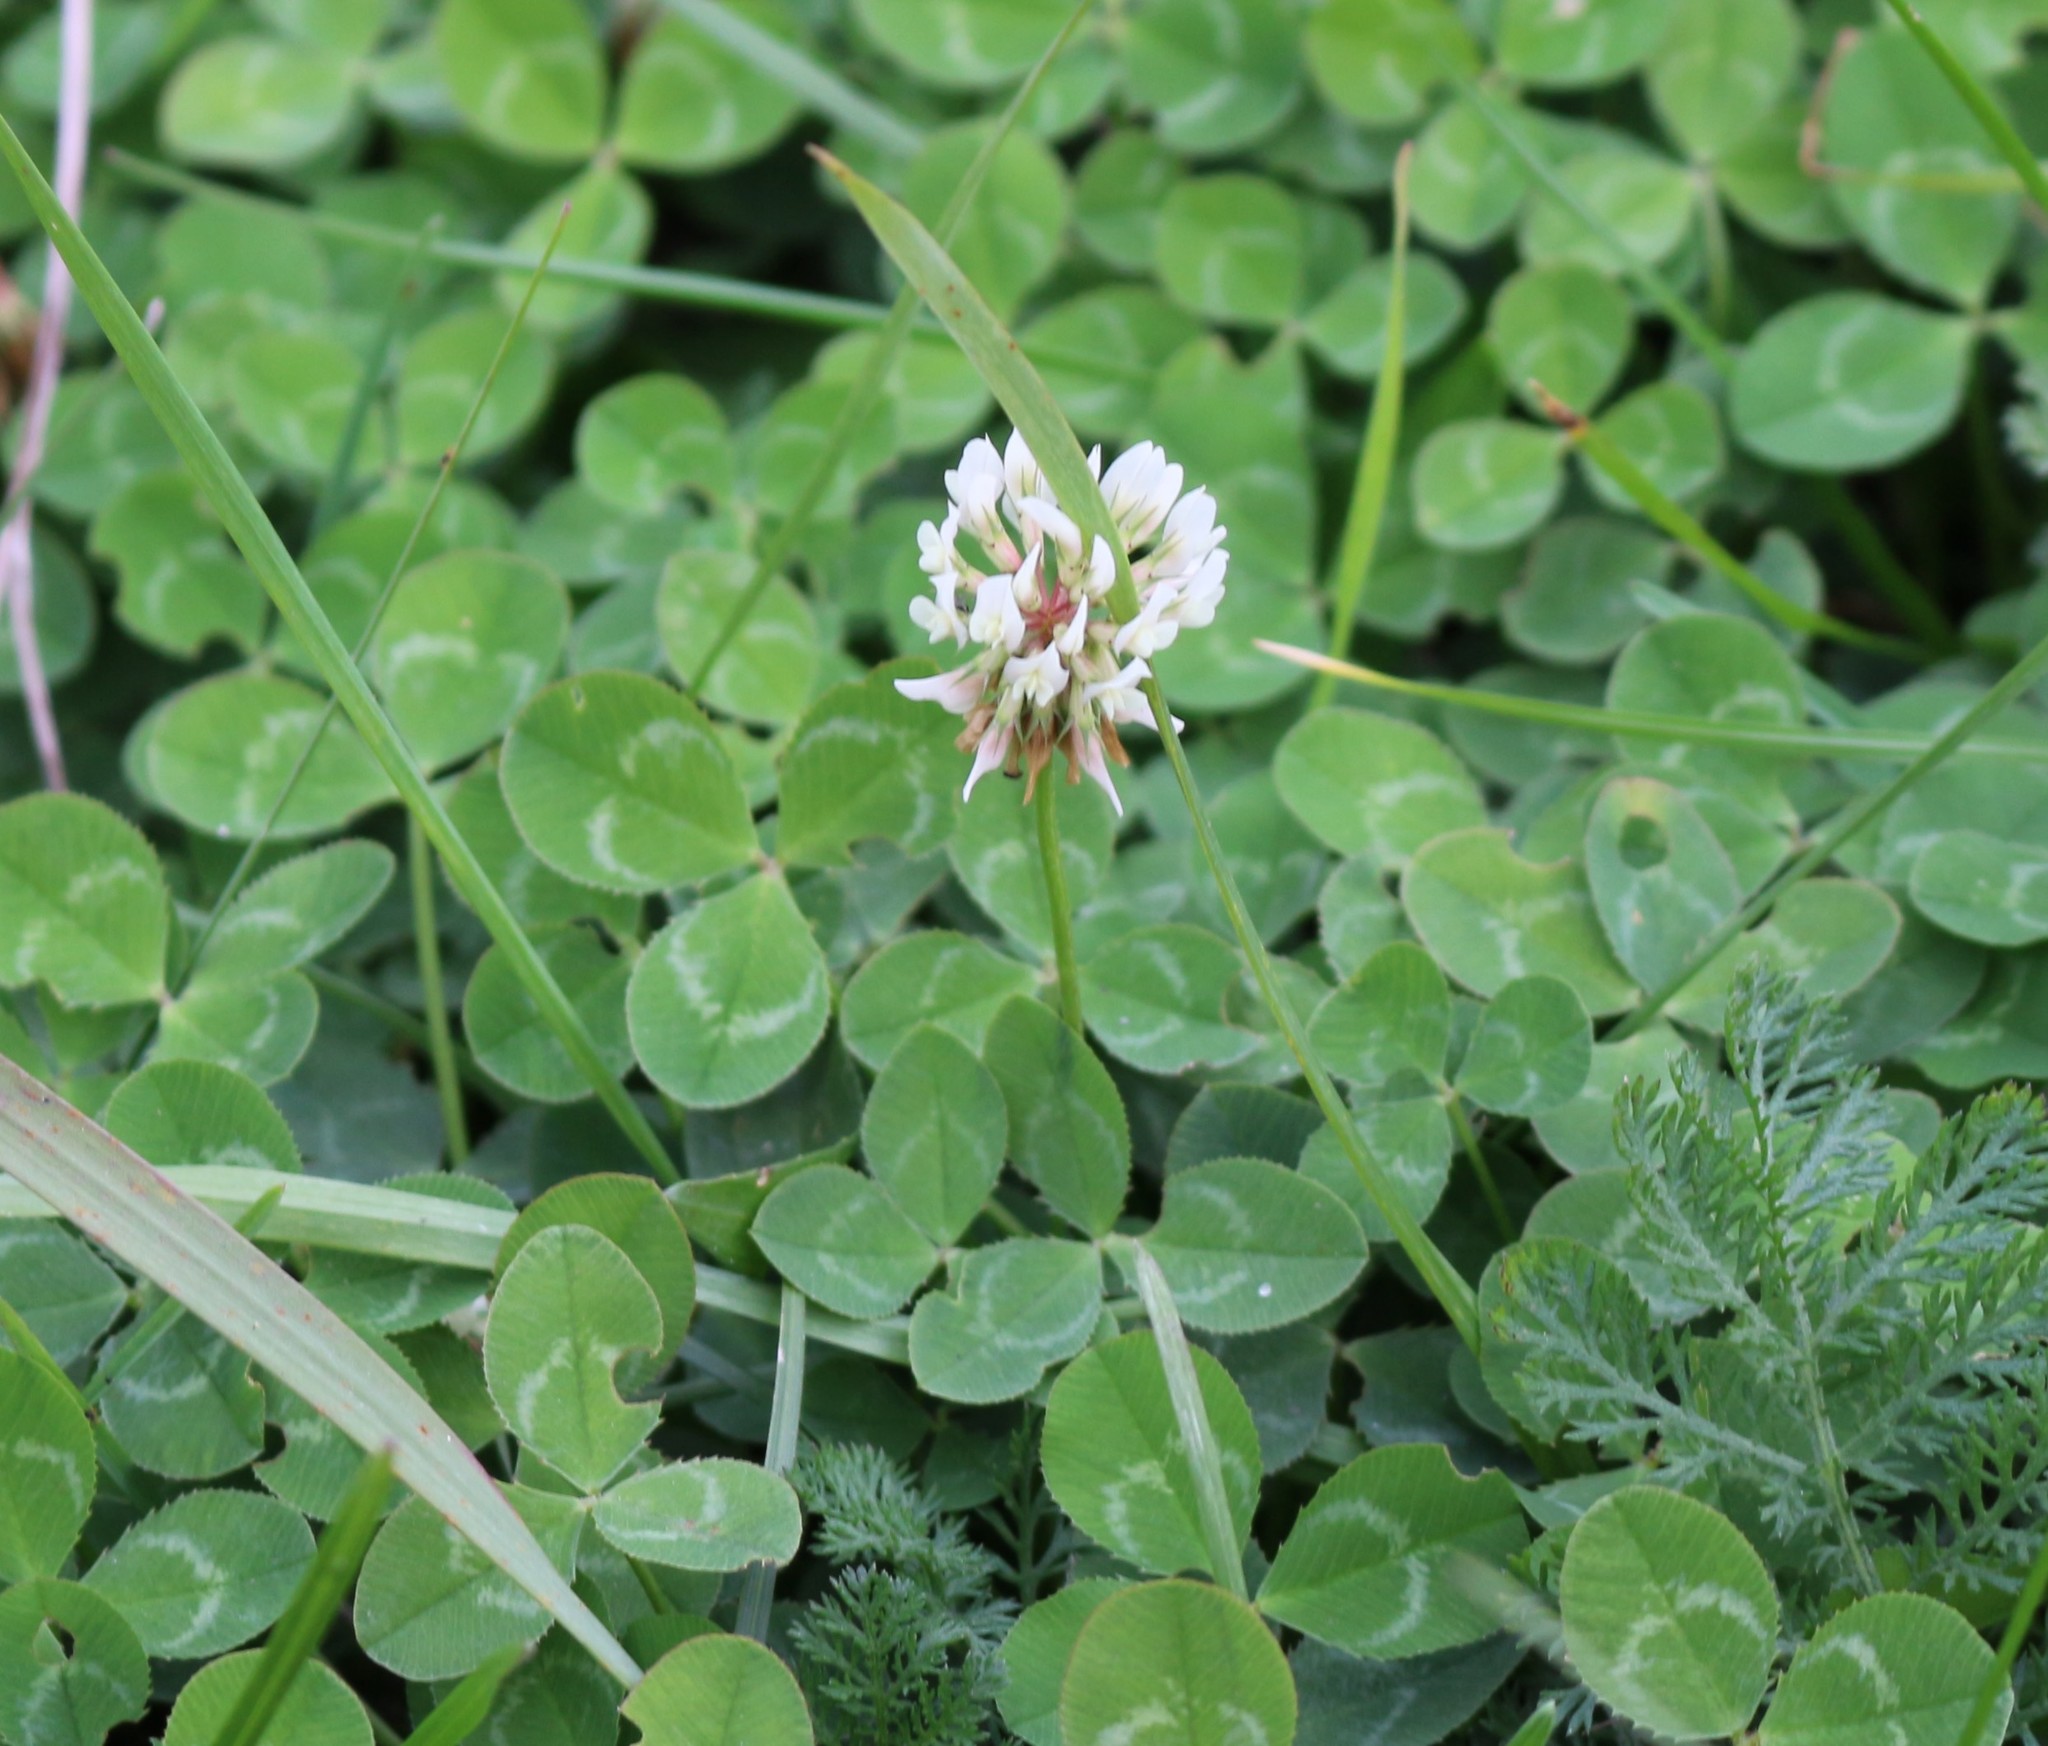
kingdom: Plantae
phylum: Tracheophyta
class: Magnoliopsida
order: Fabales
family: Fabaceae
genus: Trifolium
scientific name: Trifolium repens
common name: White clover
